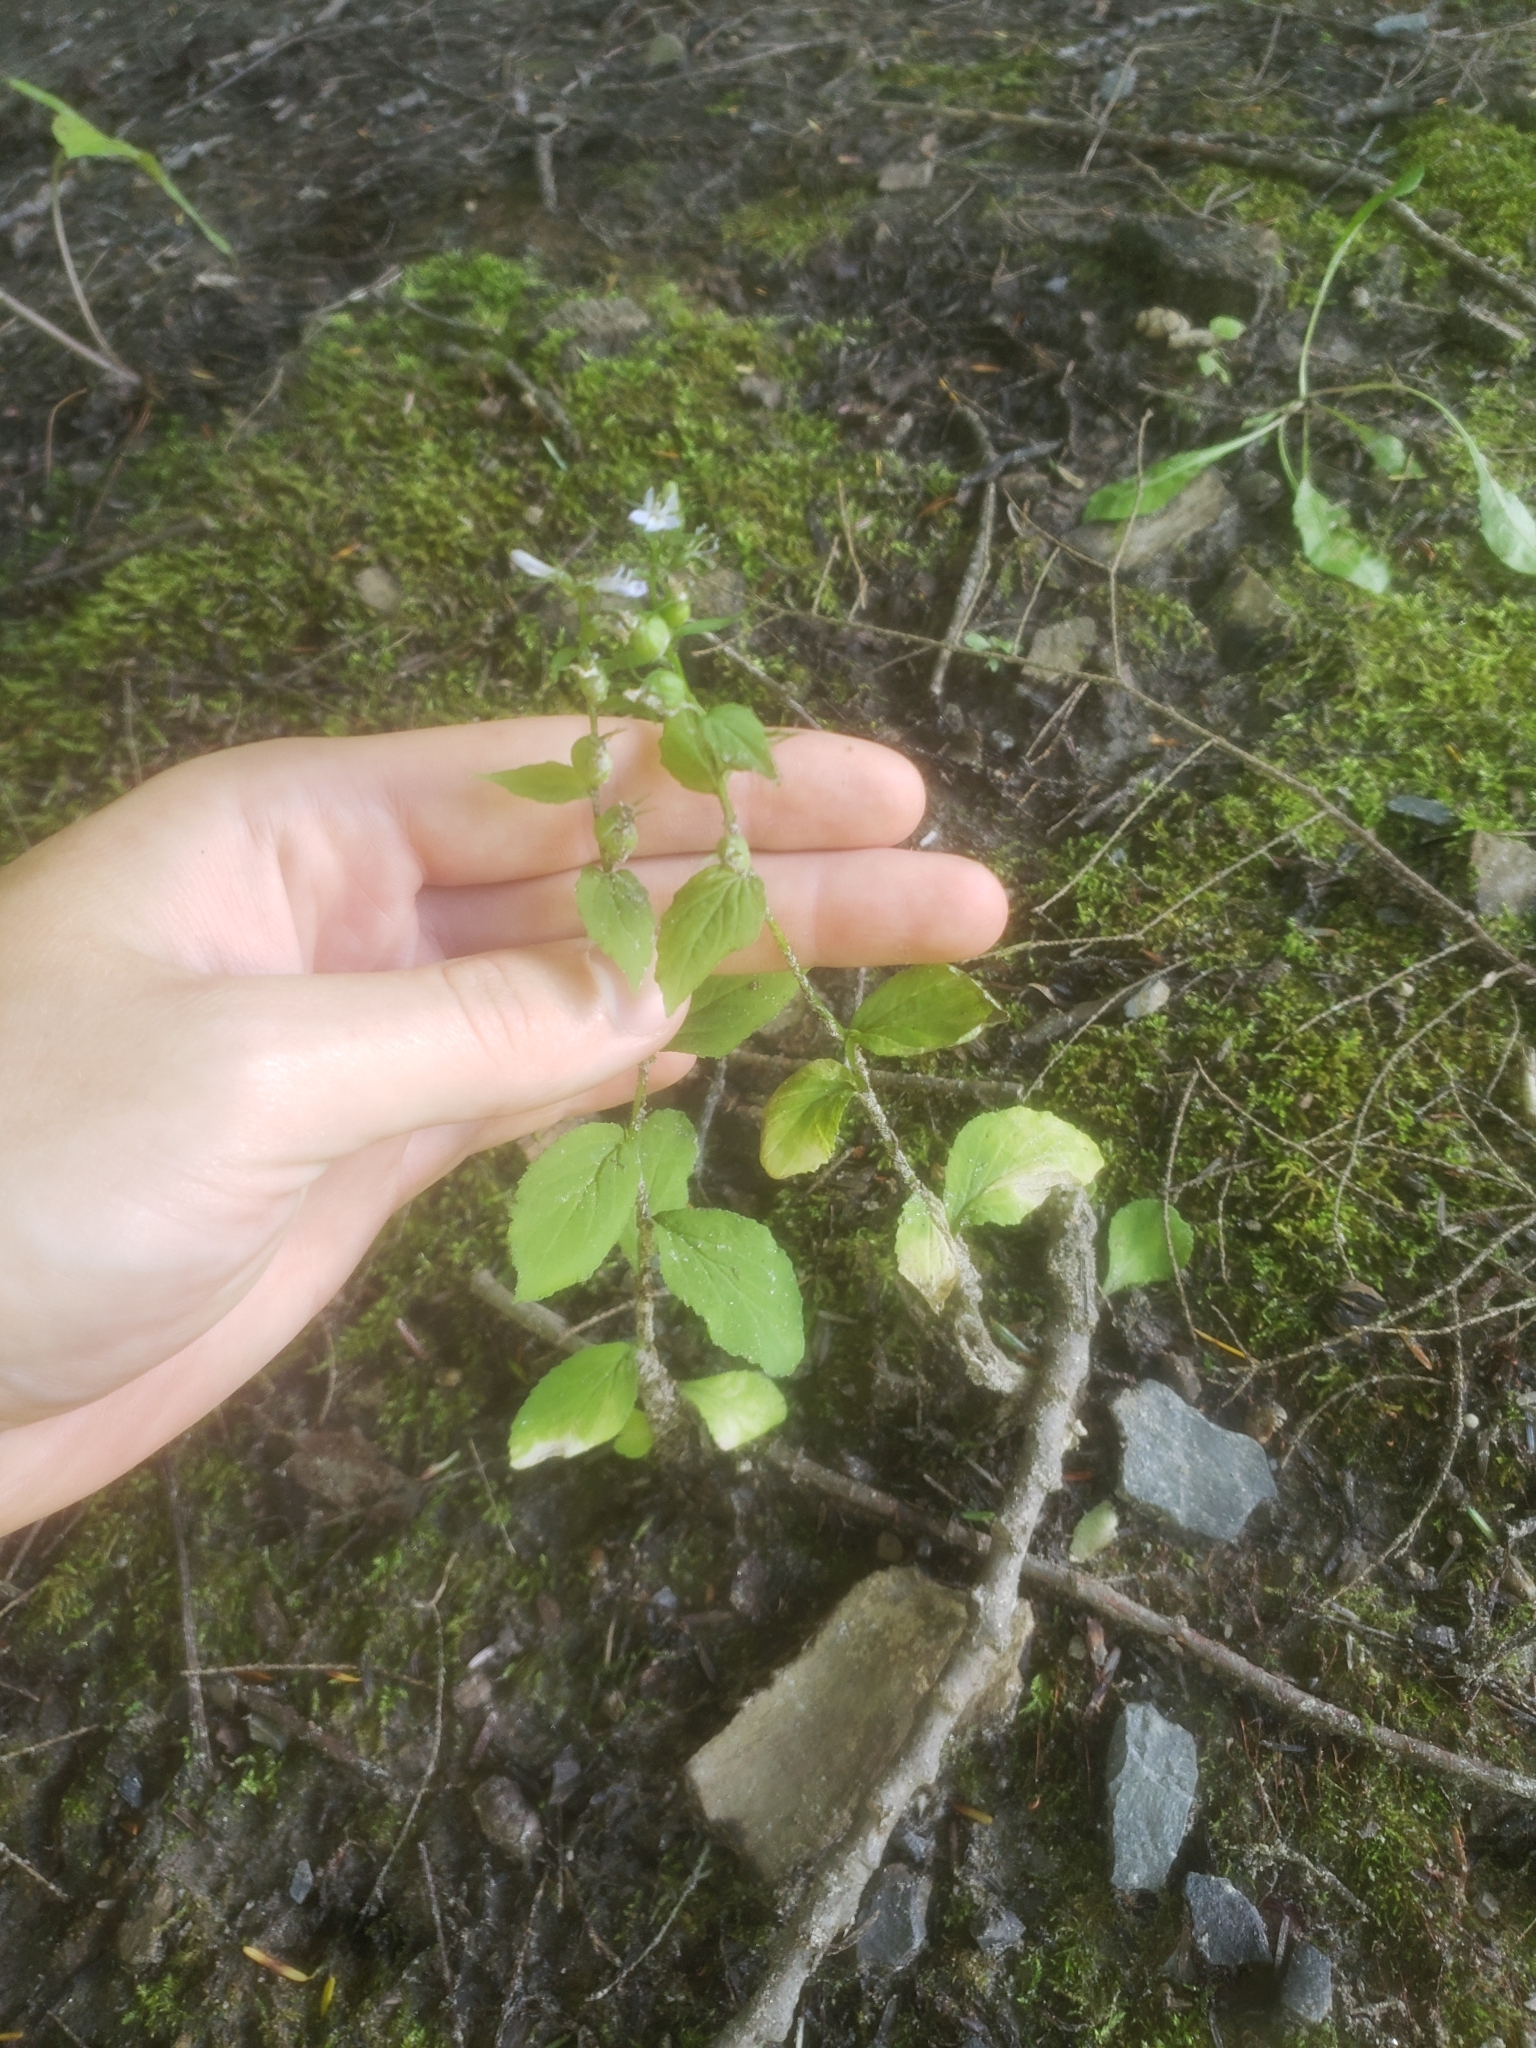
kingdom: Plantae
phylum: Tracheophyta
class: Magnoliopsida
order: Asterales
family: Campanulaceae
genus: Lobelia
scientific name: Lobelia inflata
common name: Indian tobacco
